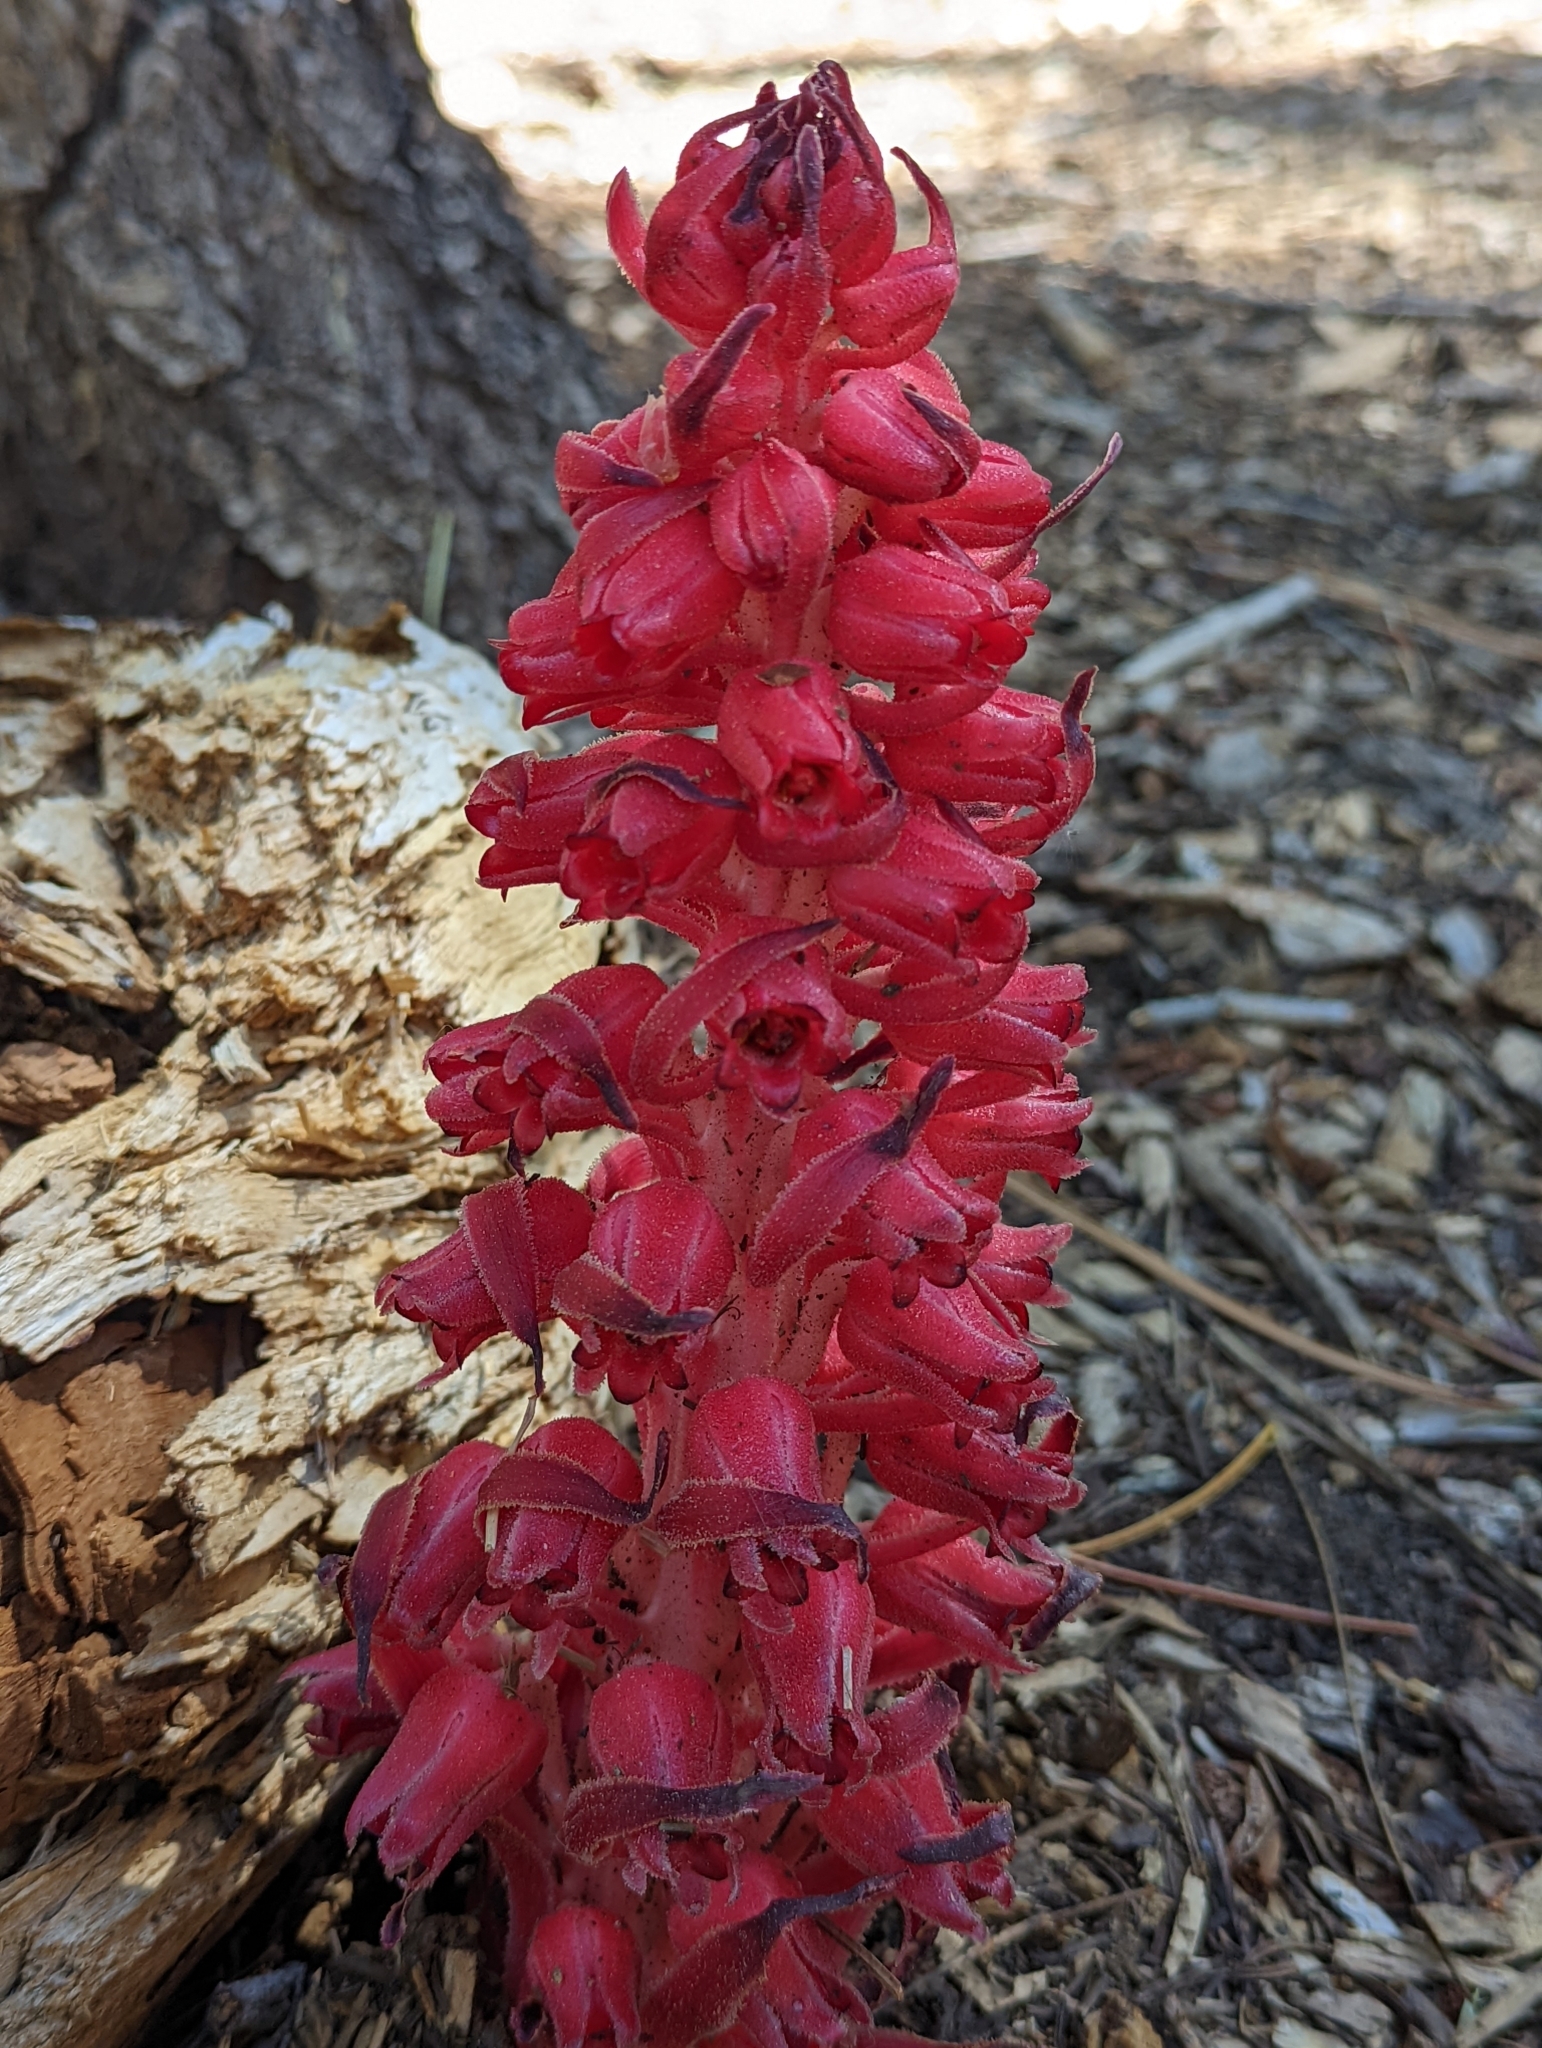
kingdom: Plantae
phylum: Tracheophyta
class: Magnoliopsida
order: Ericales
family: Ericaceae
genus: Sarcodes
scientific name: Sarcodes sanguinea
